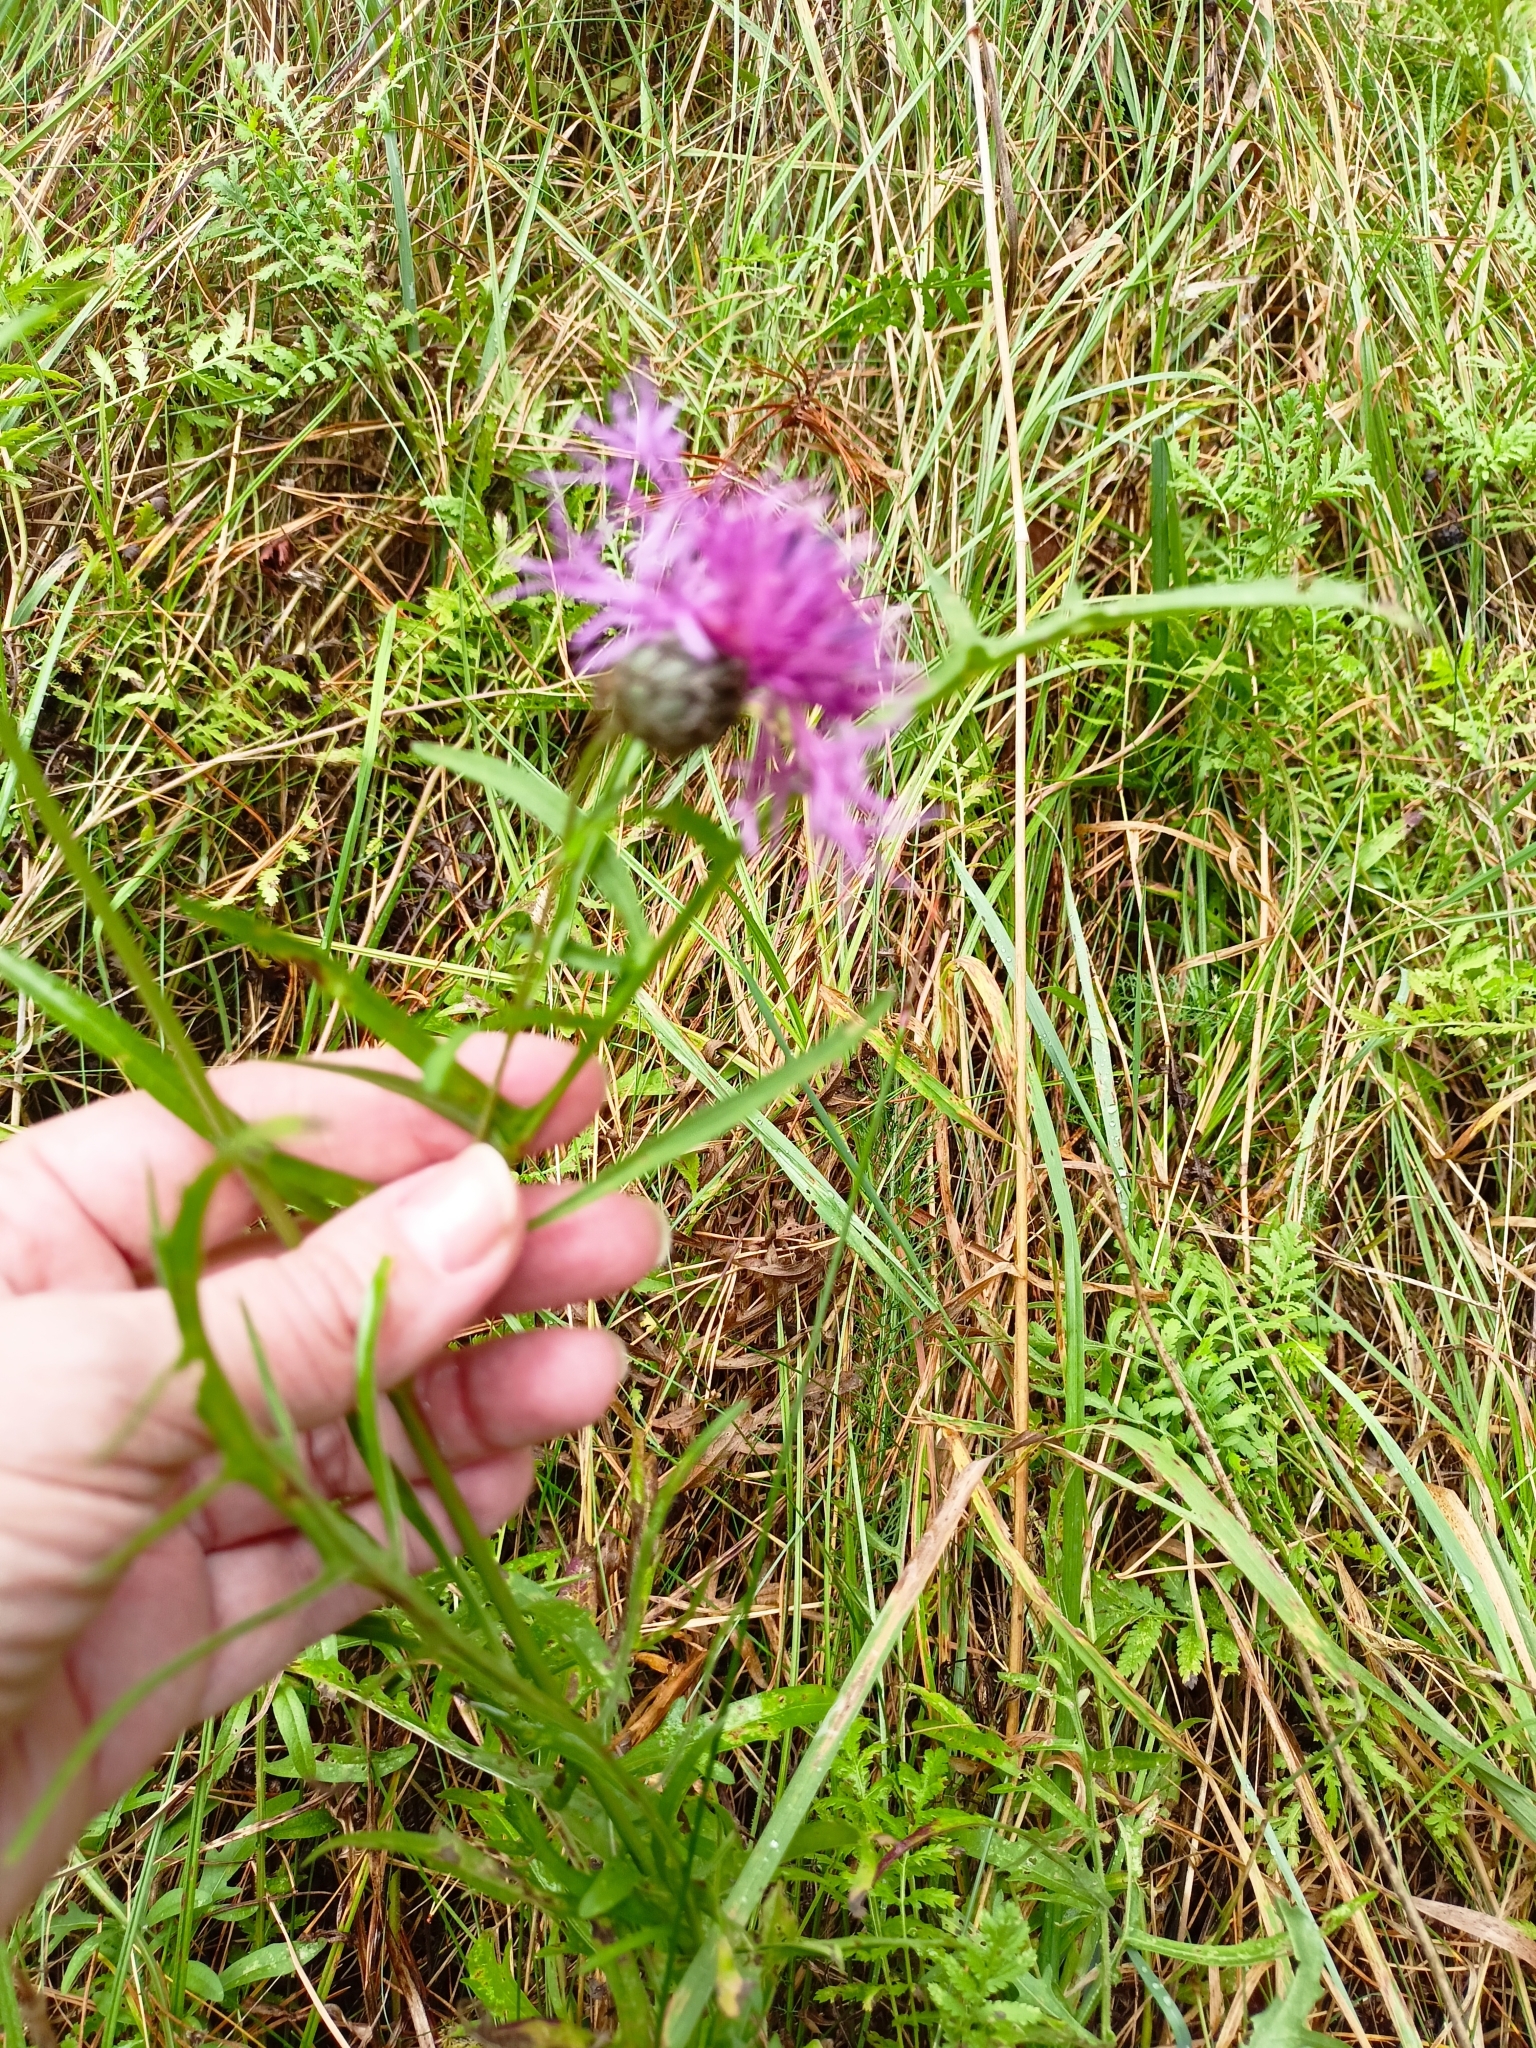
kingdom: Plantae
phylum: Tracheophyta
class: Magnoliopsida
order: Asterales
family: Asteraceae
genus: Centaurea
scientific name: Centaurea scabiosa
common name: Greater knapweed
